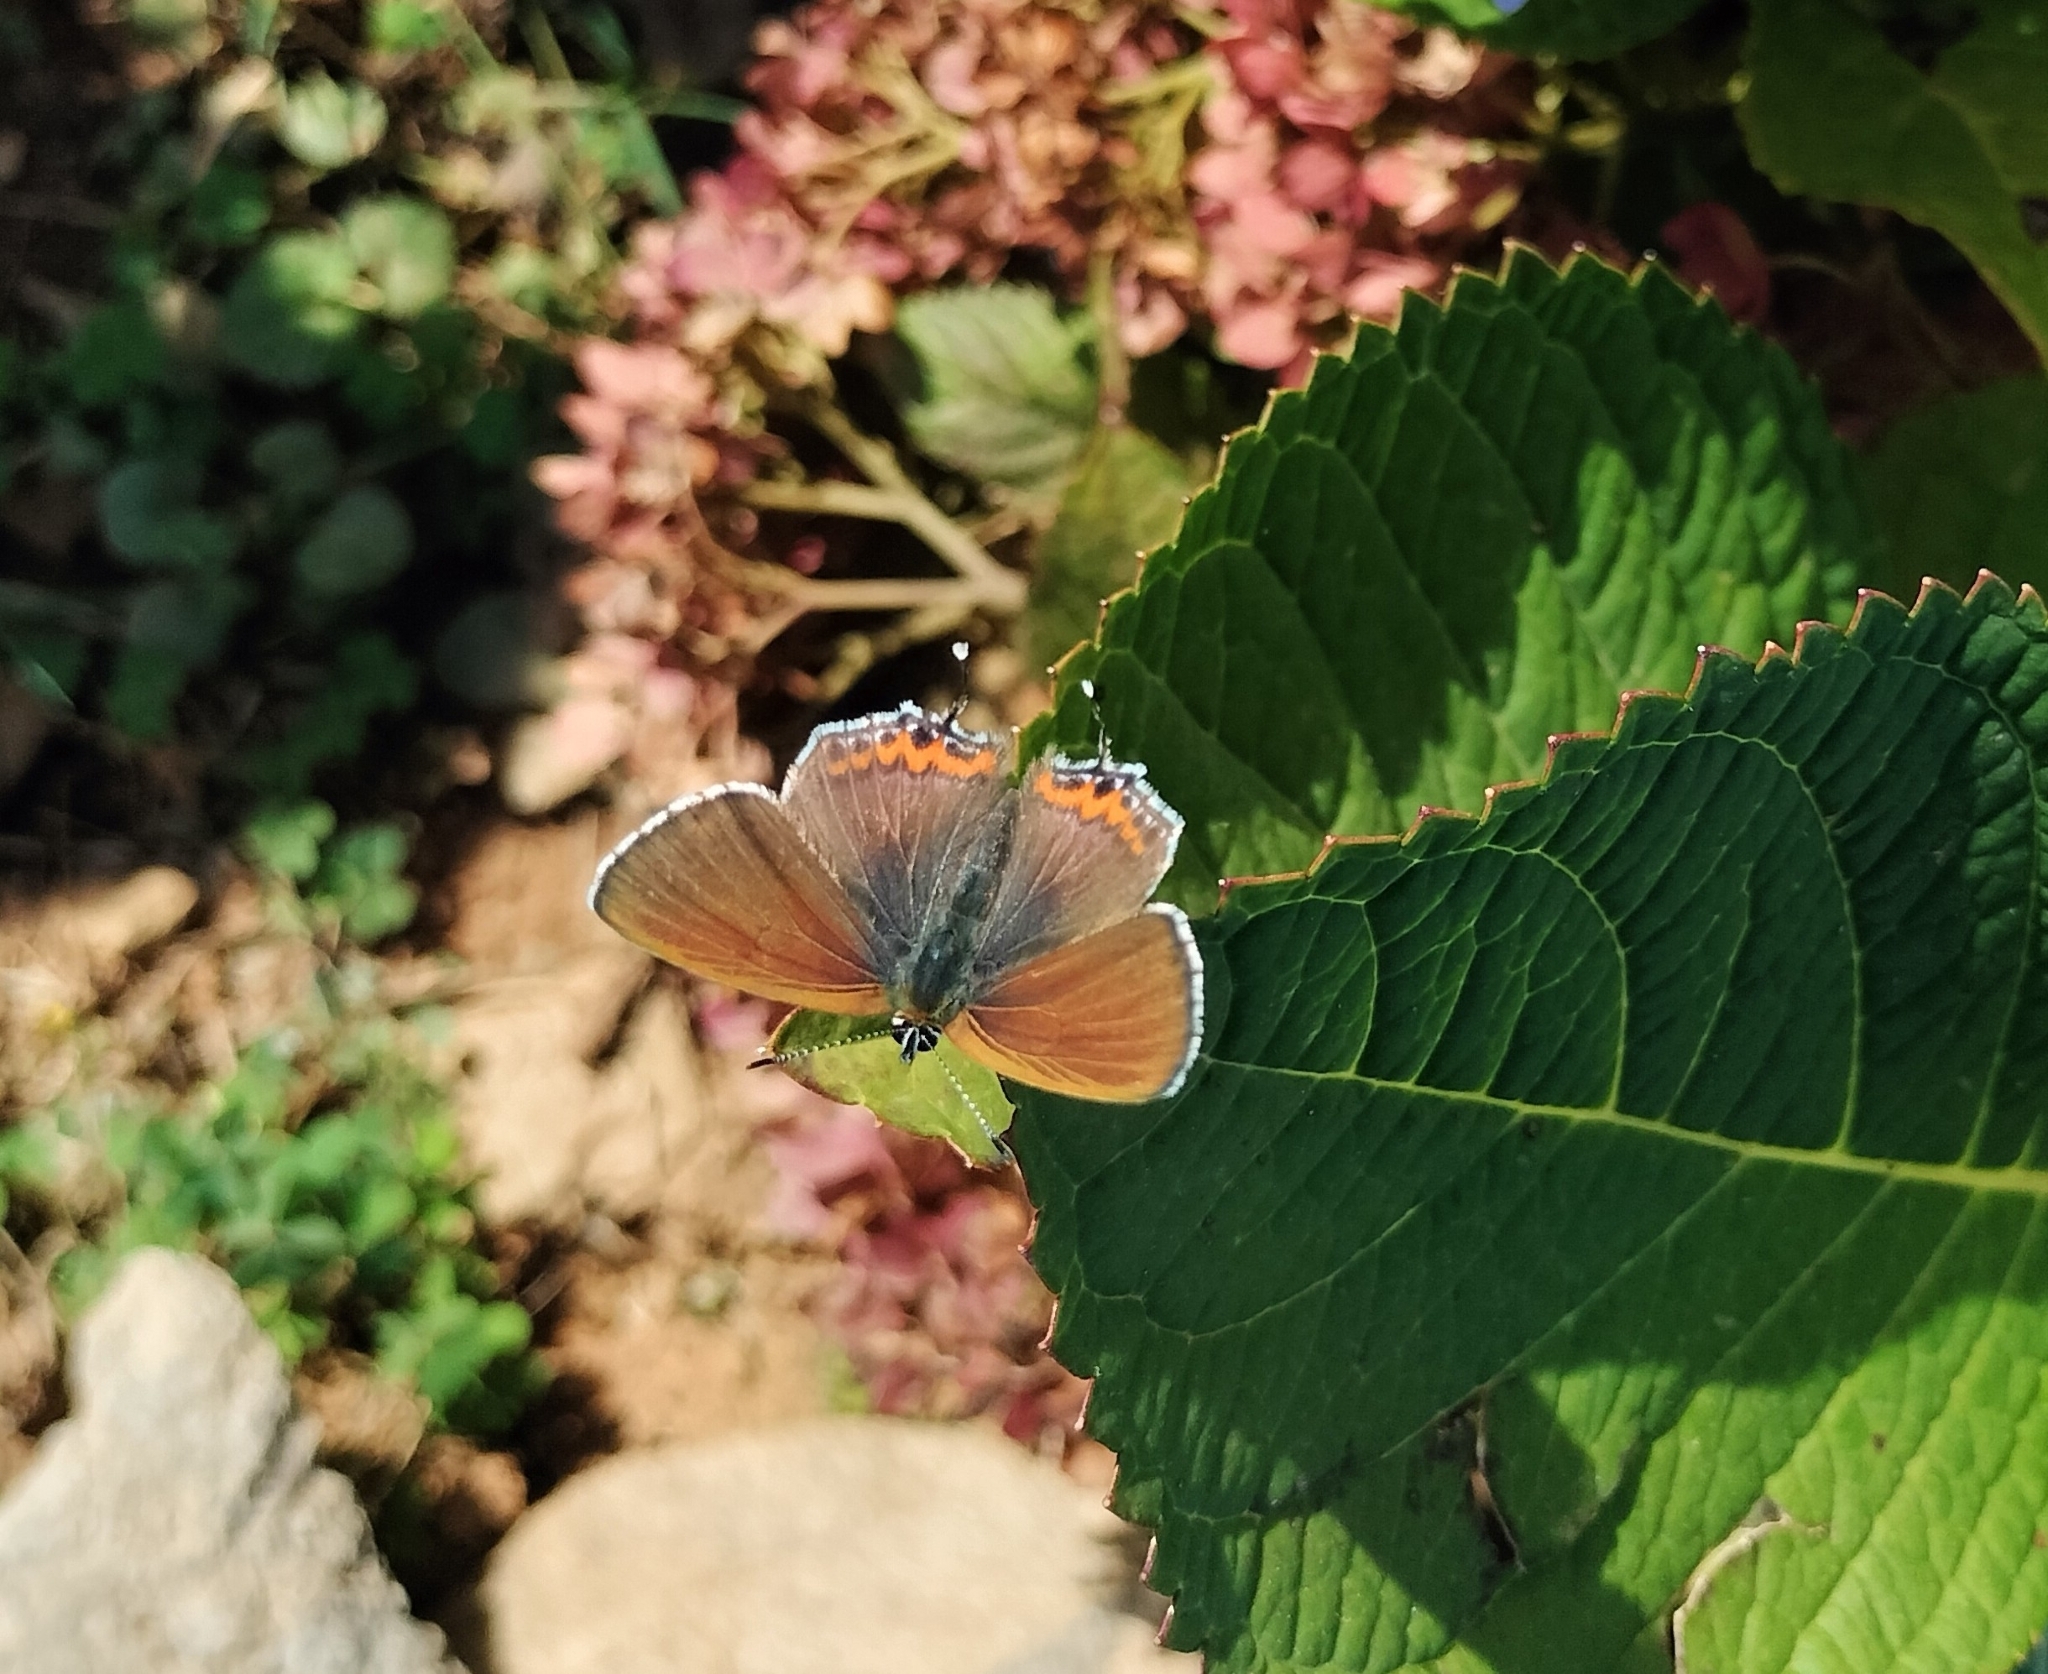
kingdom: Animalia
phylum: Arthropoda
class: Insecta
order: Lepidoptera
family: Lycaenidae
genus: Heliophorus
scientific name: Heliophorus sena
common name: Sorrel sapphire
